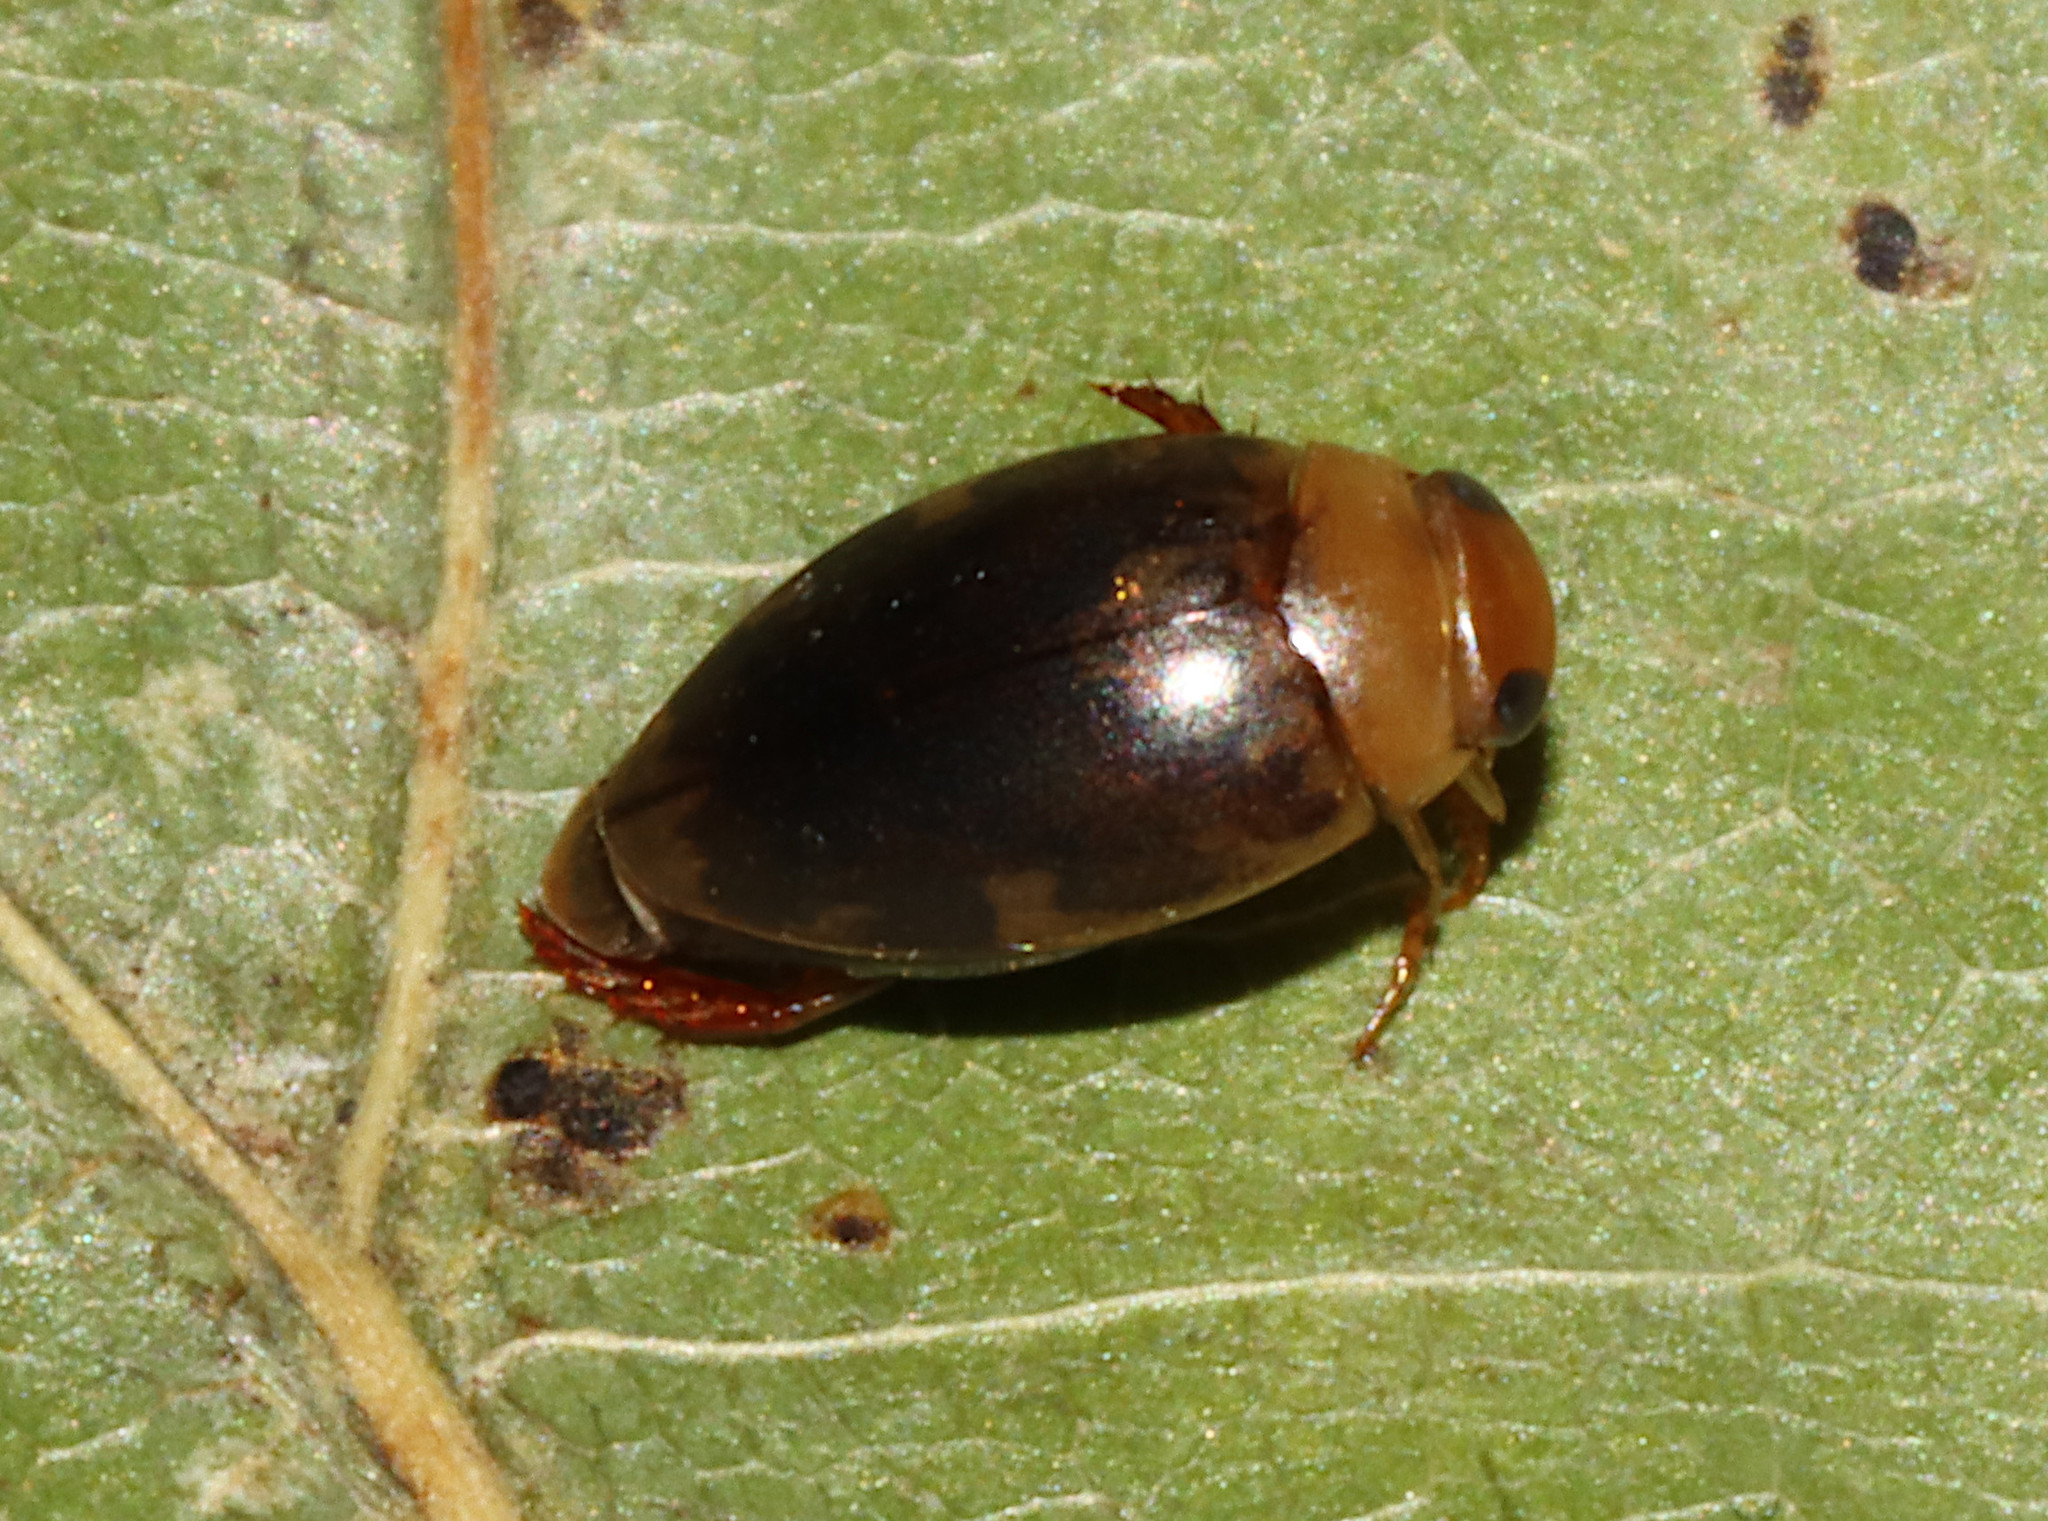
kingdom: Animalia
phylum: Arthropoda
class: Insecta
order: Coleoptera
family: Dytiscidae
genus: Laccophilus
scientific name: Laccophilus
